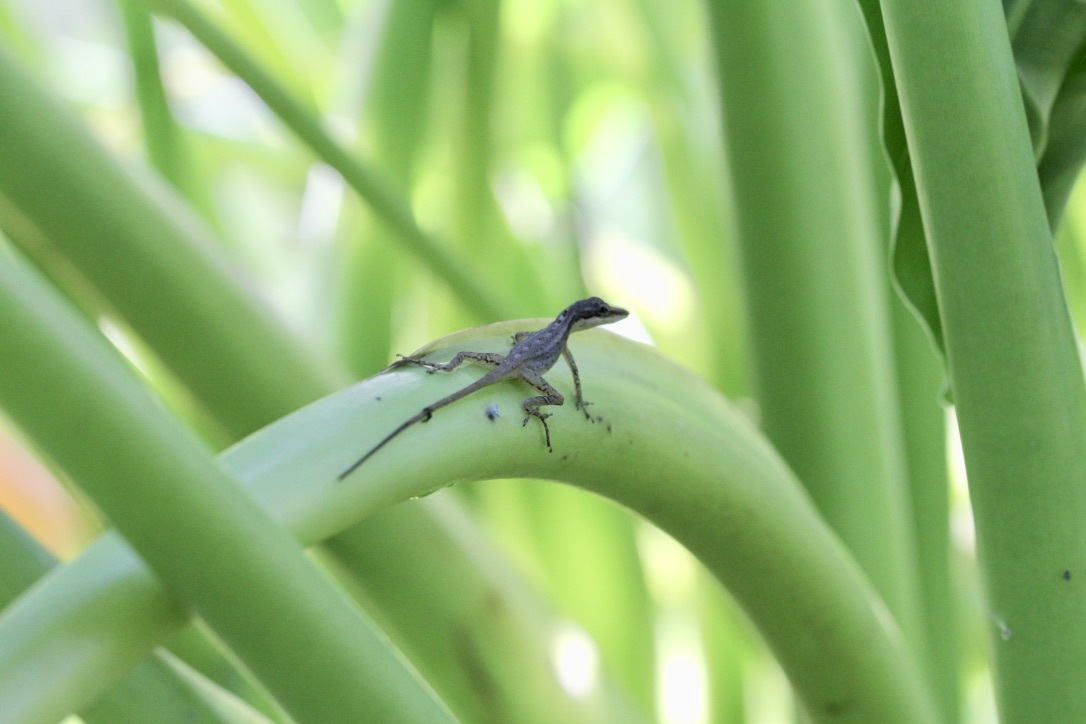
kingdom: Animalia
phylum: Chordata
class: Squamata
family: Dactyloidae
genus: Anolis
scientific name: Anolis limifrons
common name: Border anole
